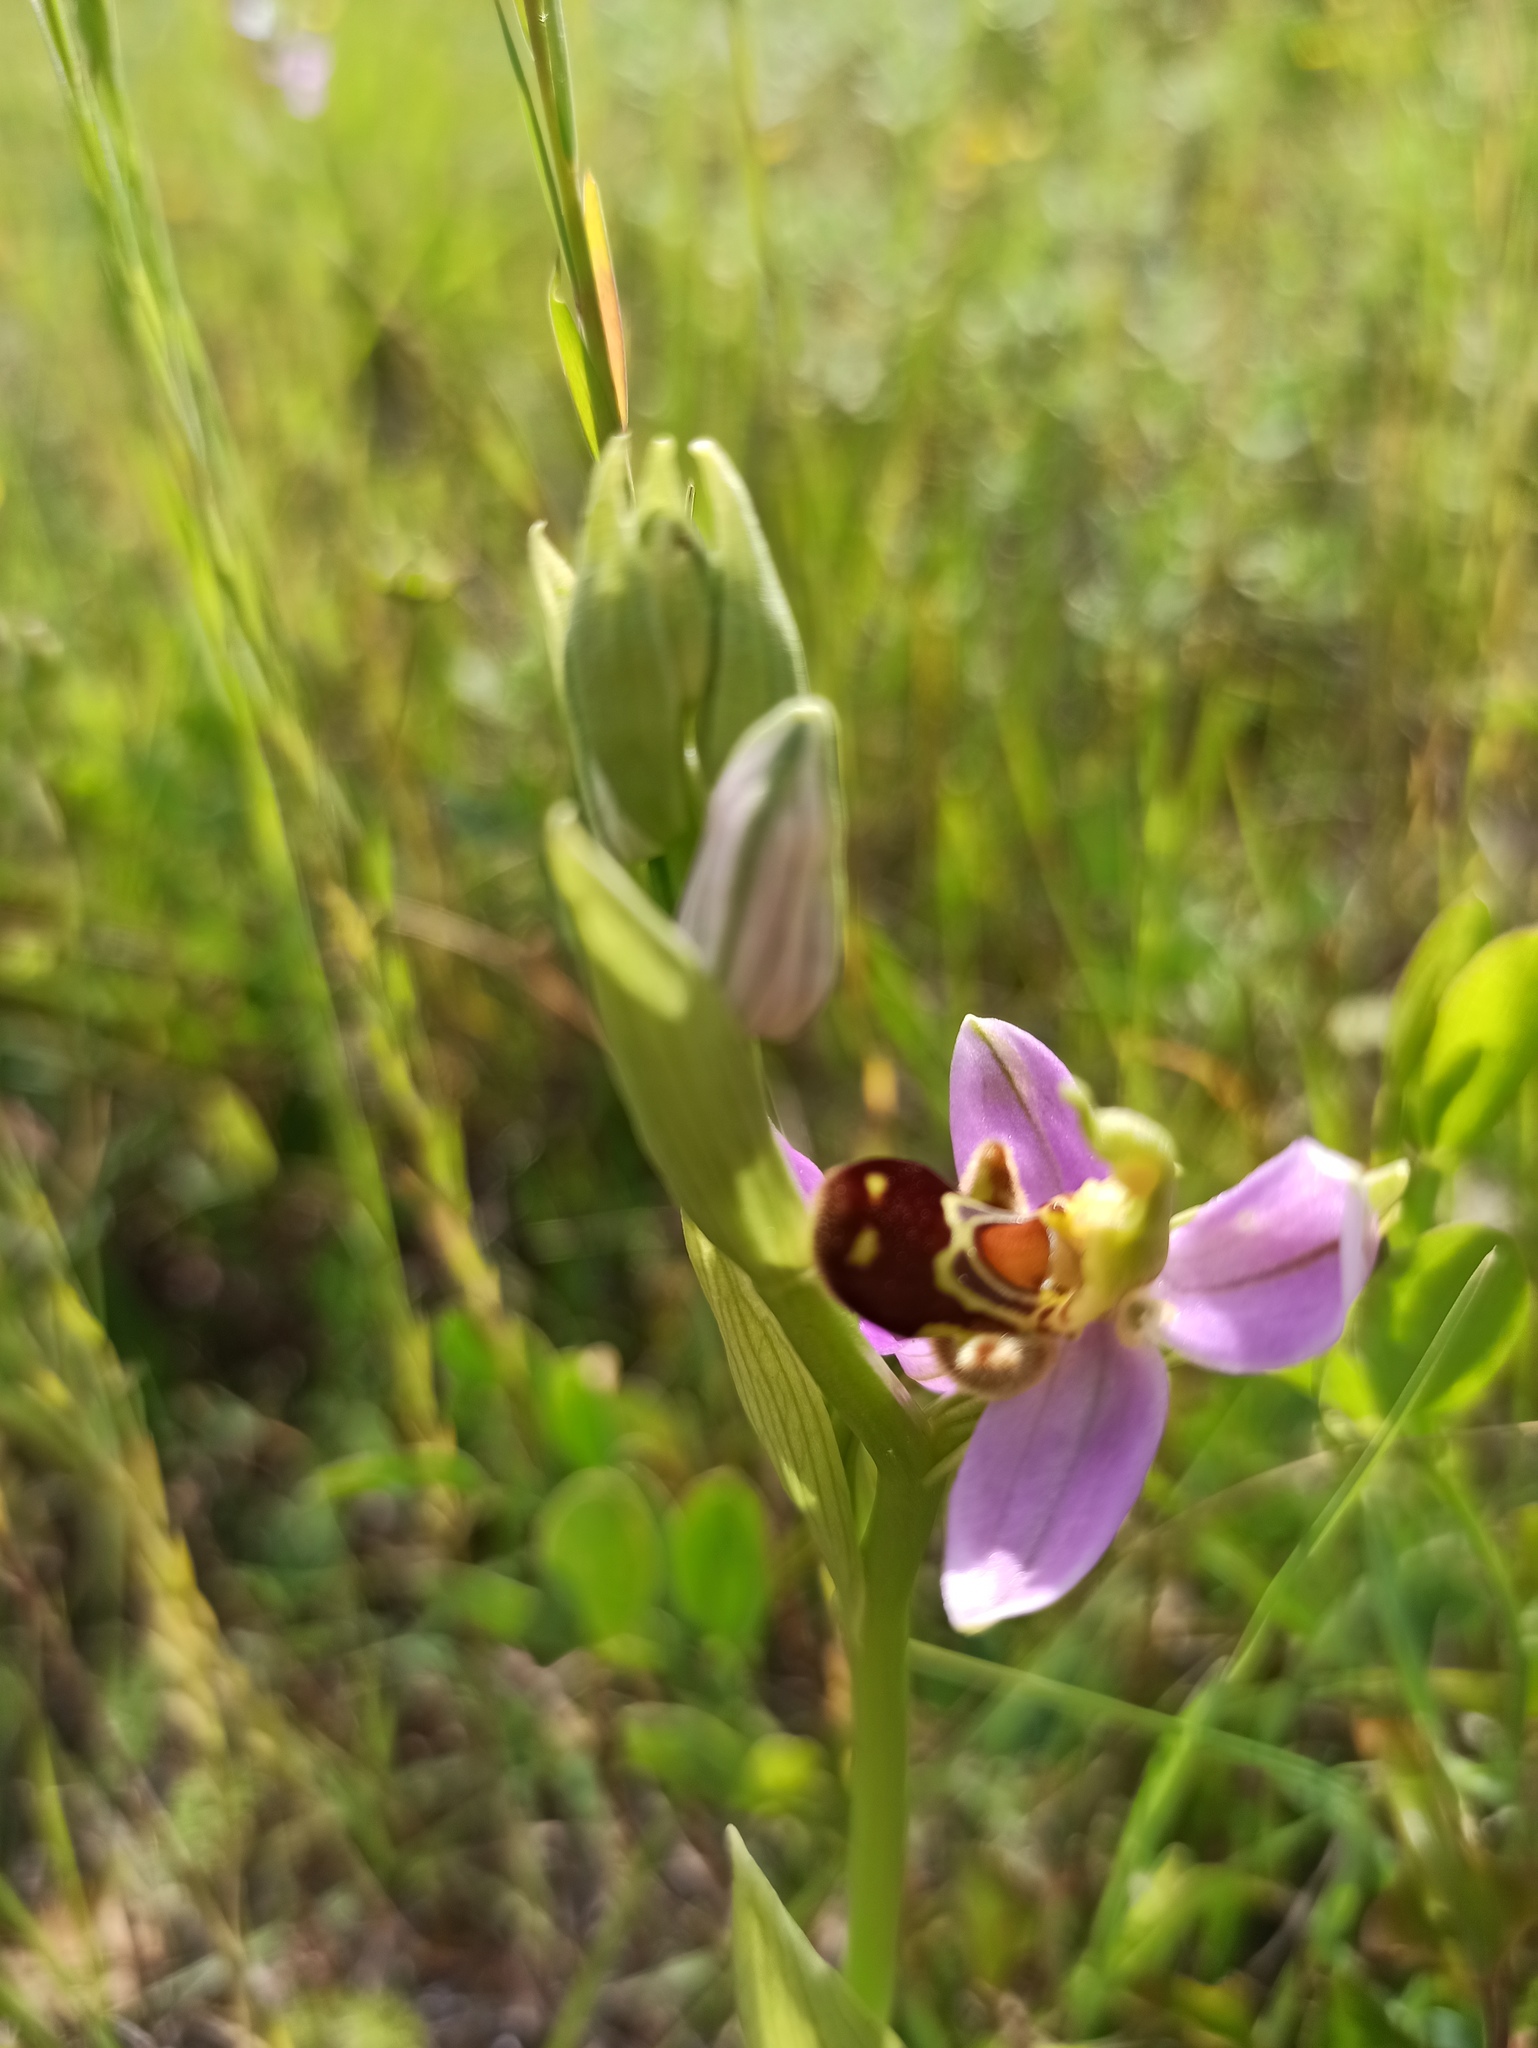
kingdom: Plantae
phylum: Tracheophyta
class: Liliopsida
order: Asparagales
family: Orchidaceae
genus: Ophrys
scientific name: Ophrys apifera
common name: Bee orchid
